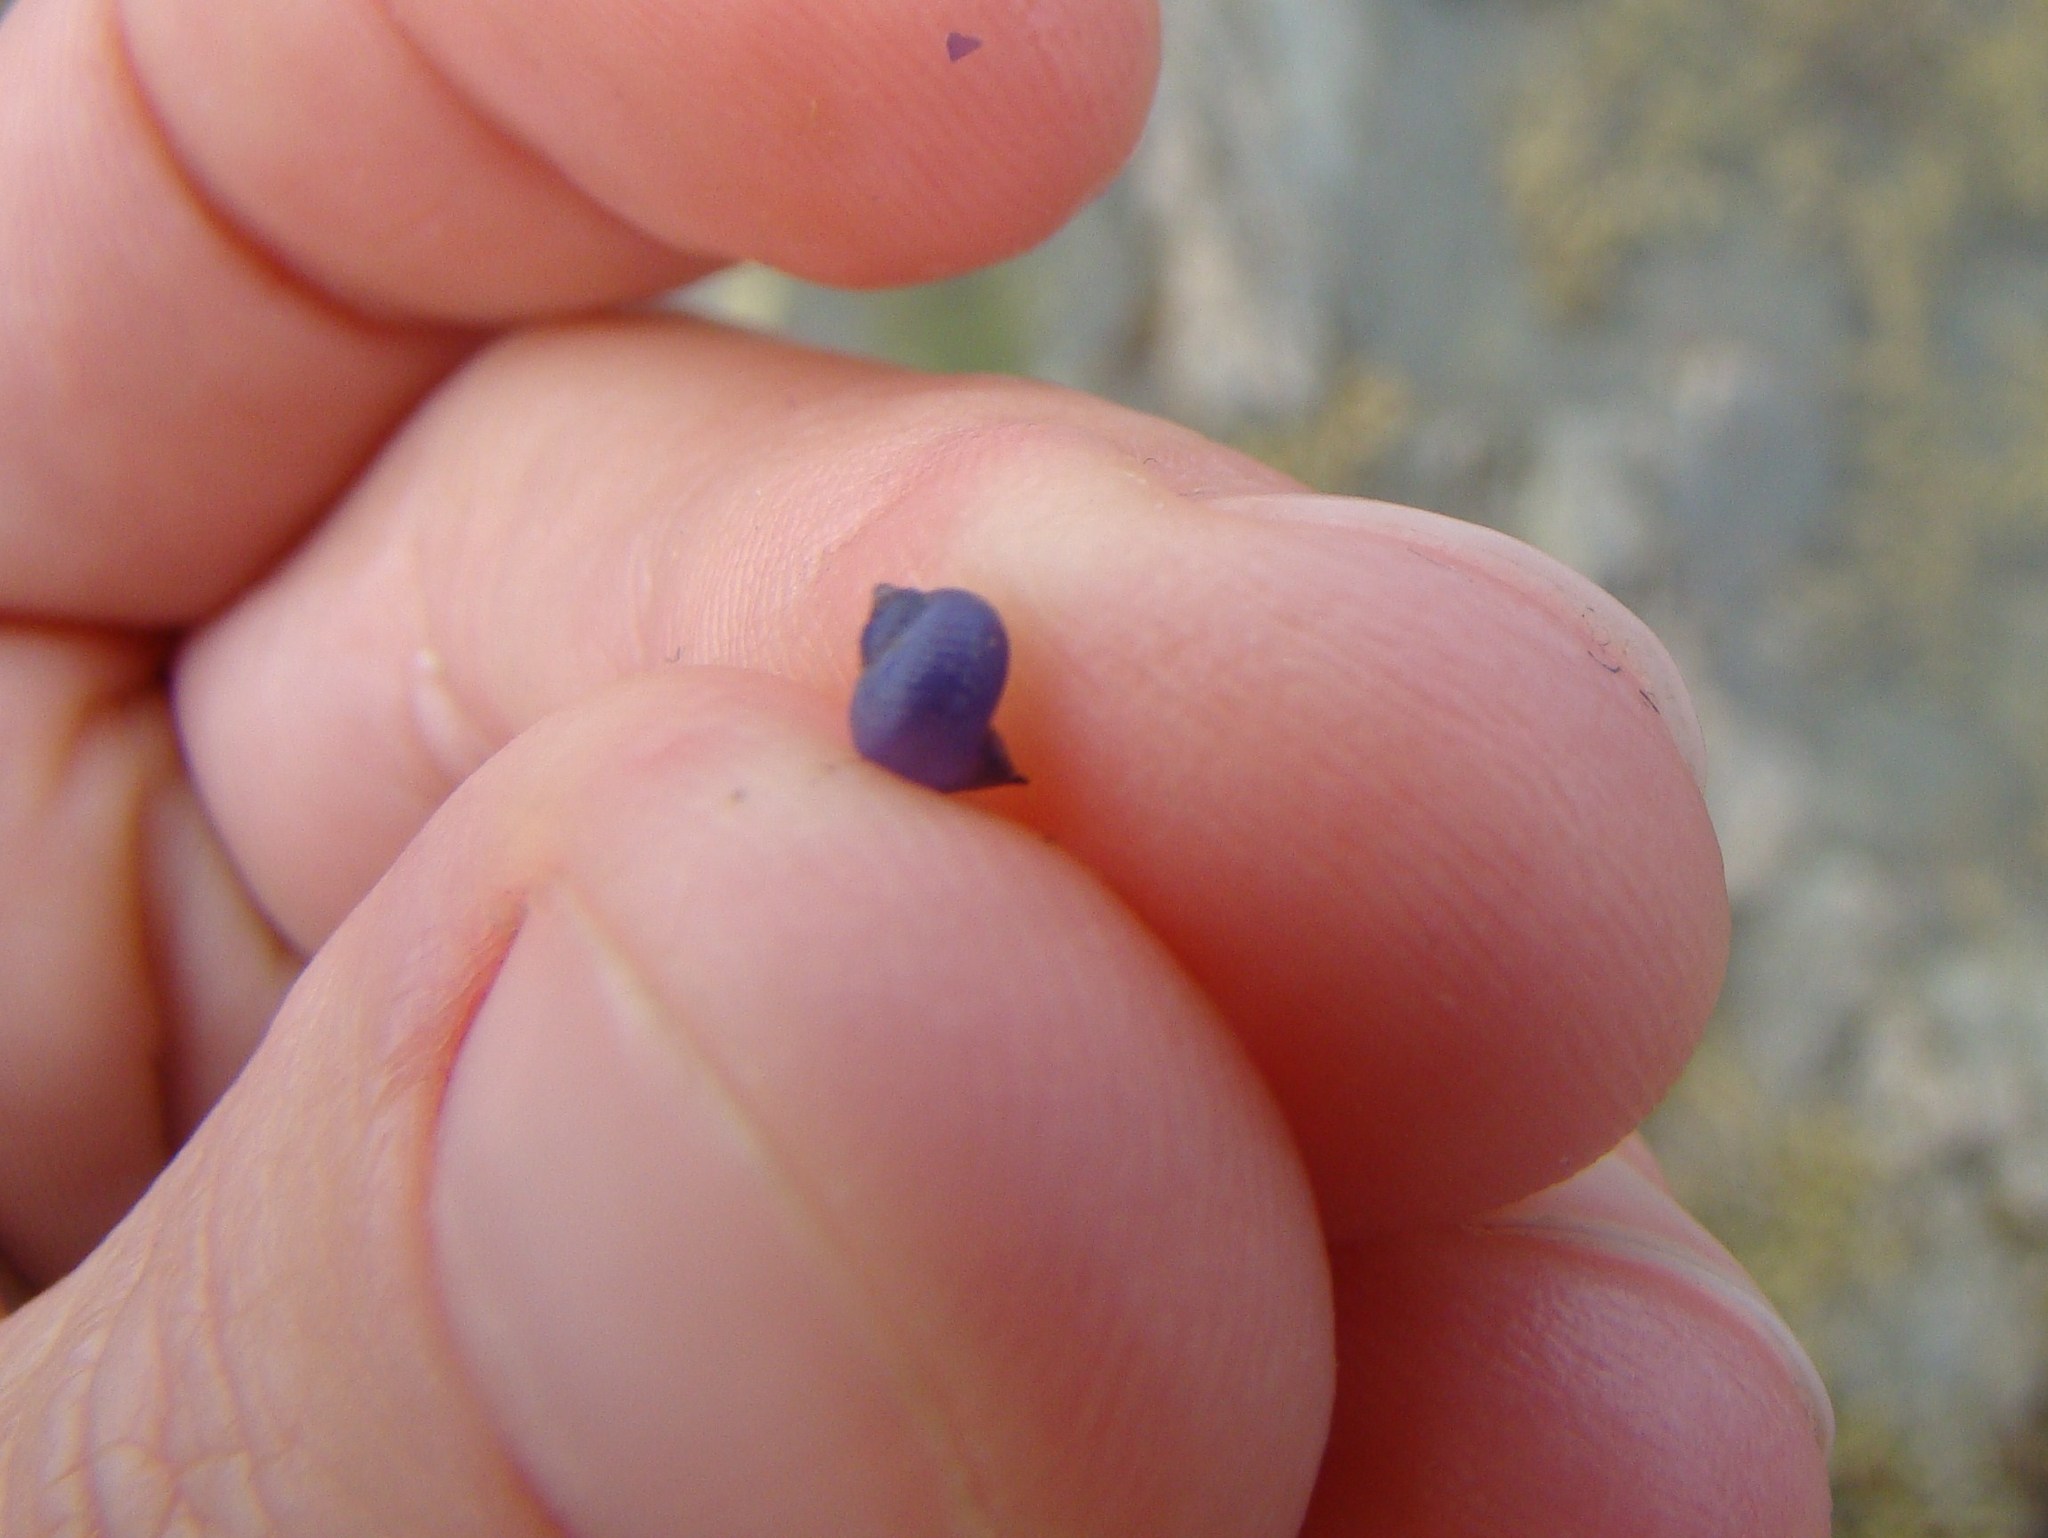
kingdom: Animalia
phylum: Mollusca
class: Gastropoda
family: Epitoniidae
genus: Janthina
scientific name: Janthina exigua
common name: Dwarf janthina
